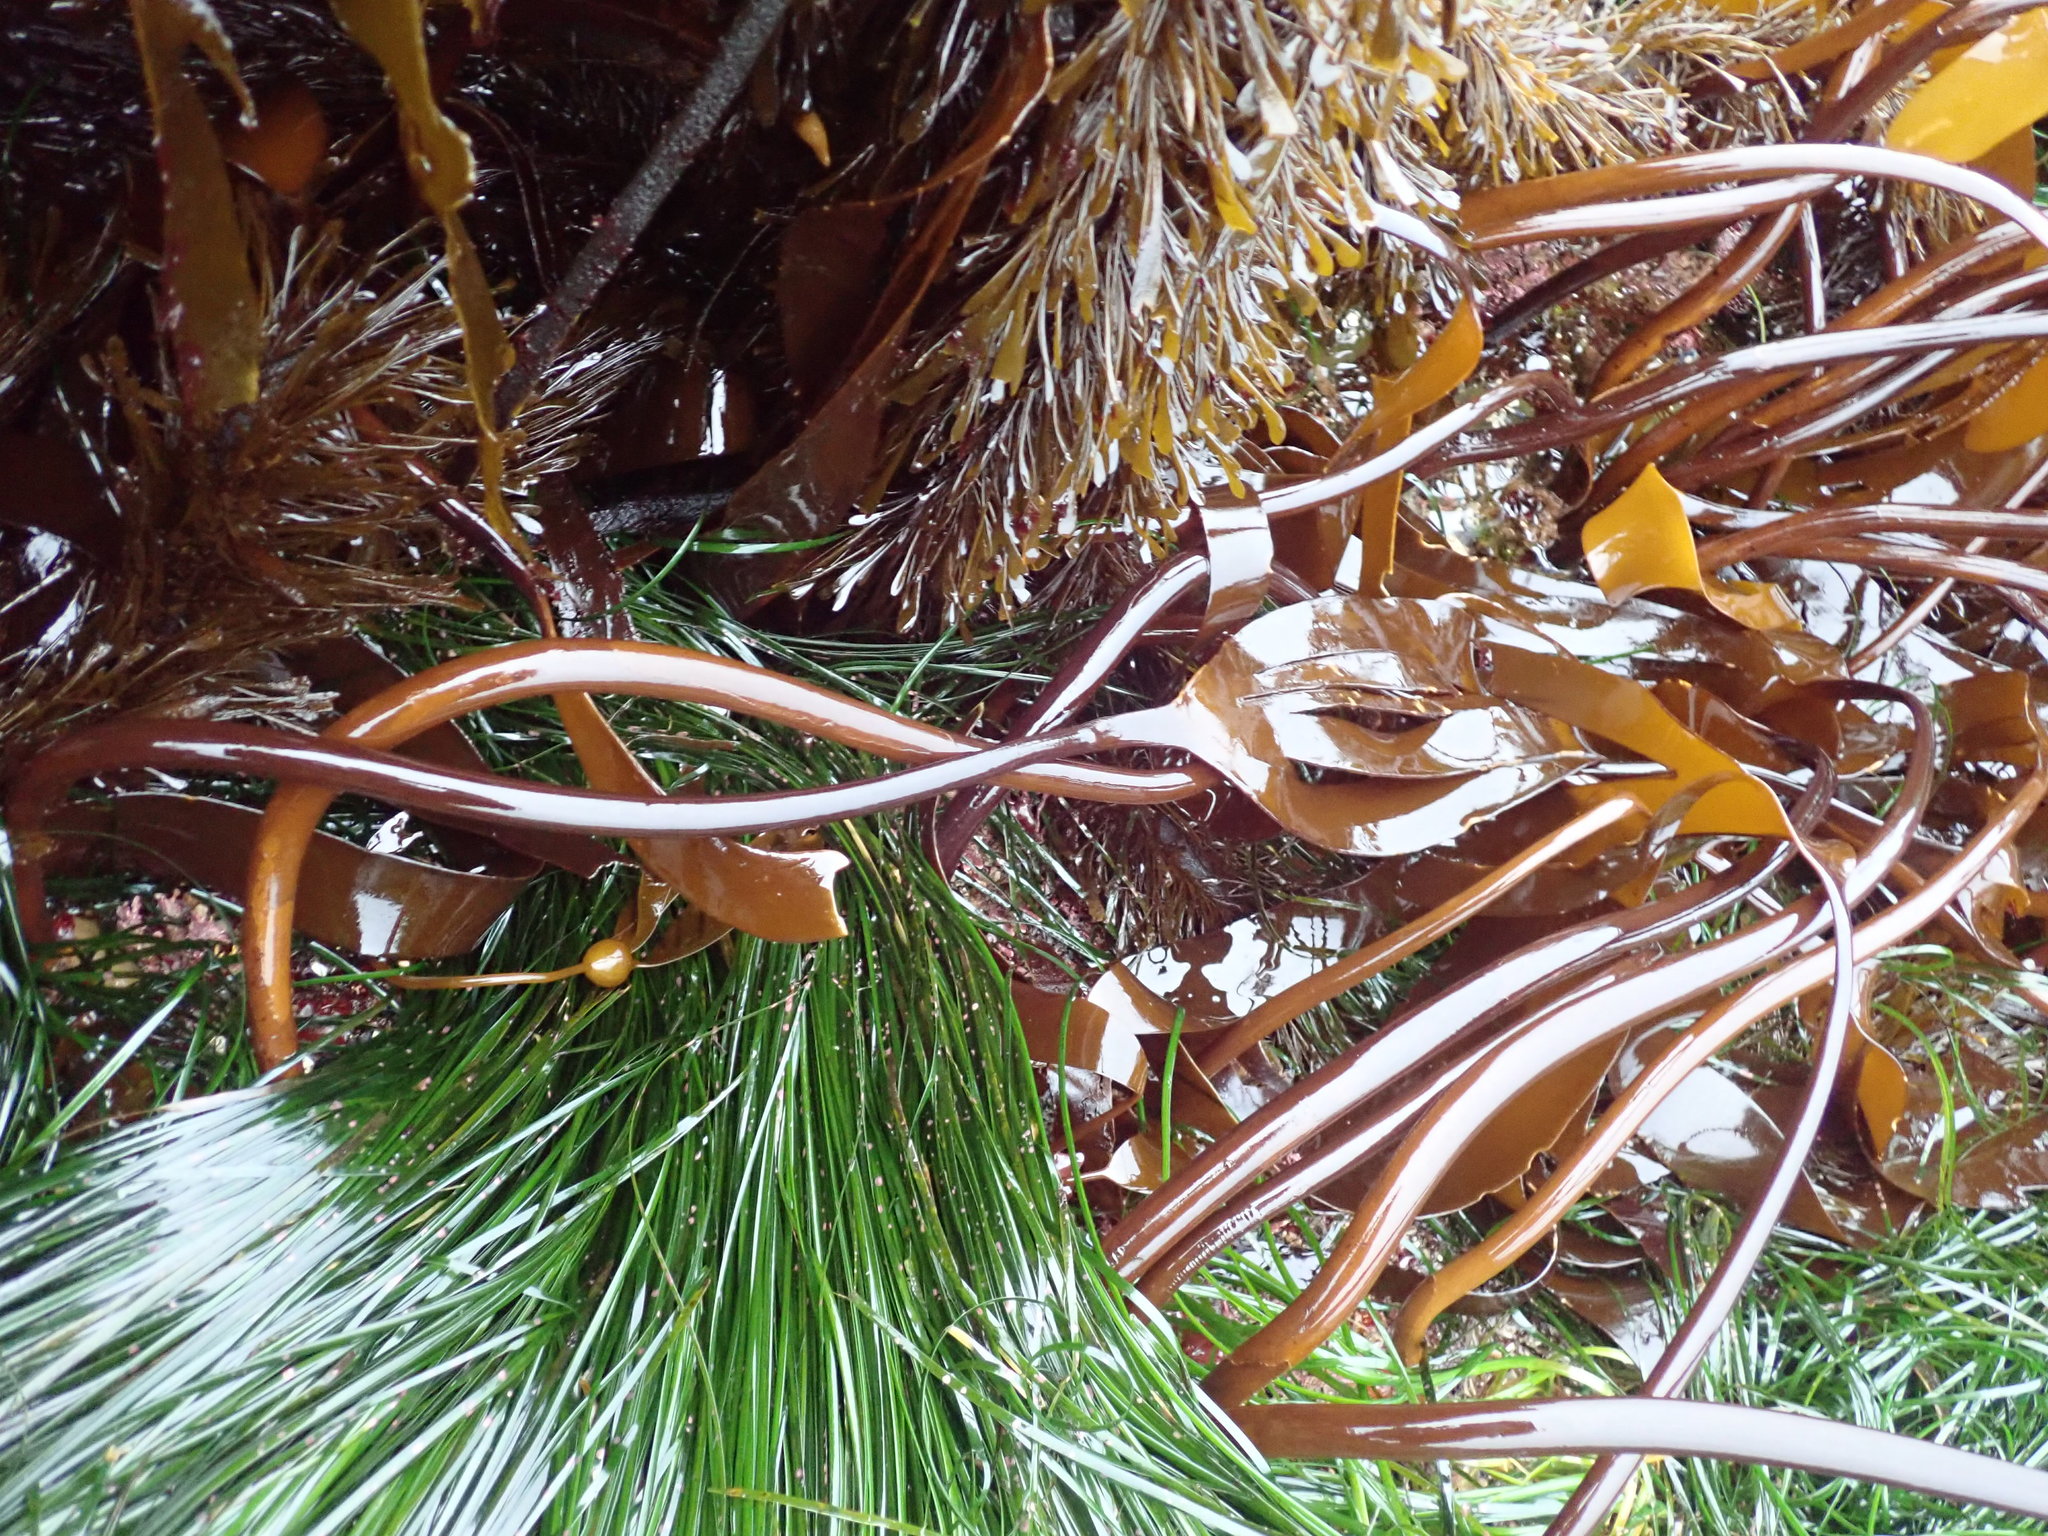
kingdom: Chromista
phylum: Ochrophyta
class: Phaeophyceae
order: Laminariales
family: Laminariaceae
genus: Laminaria
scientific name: Laminaria setchellii
